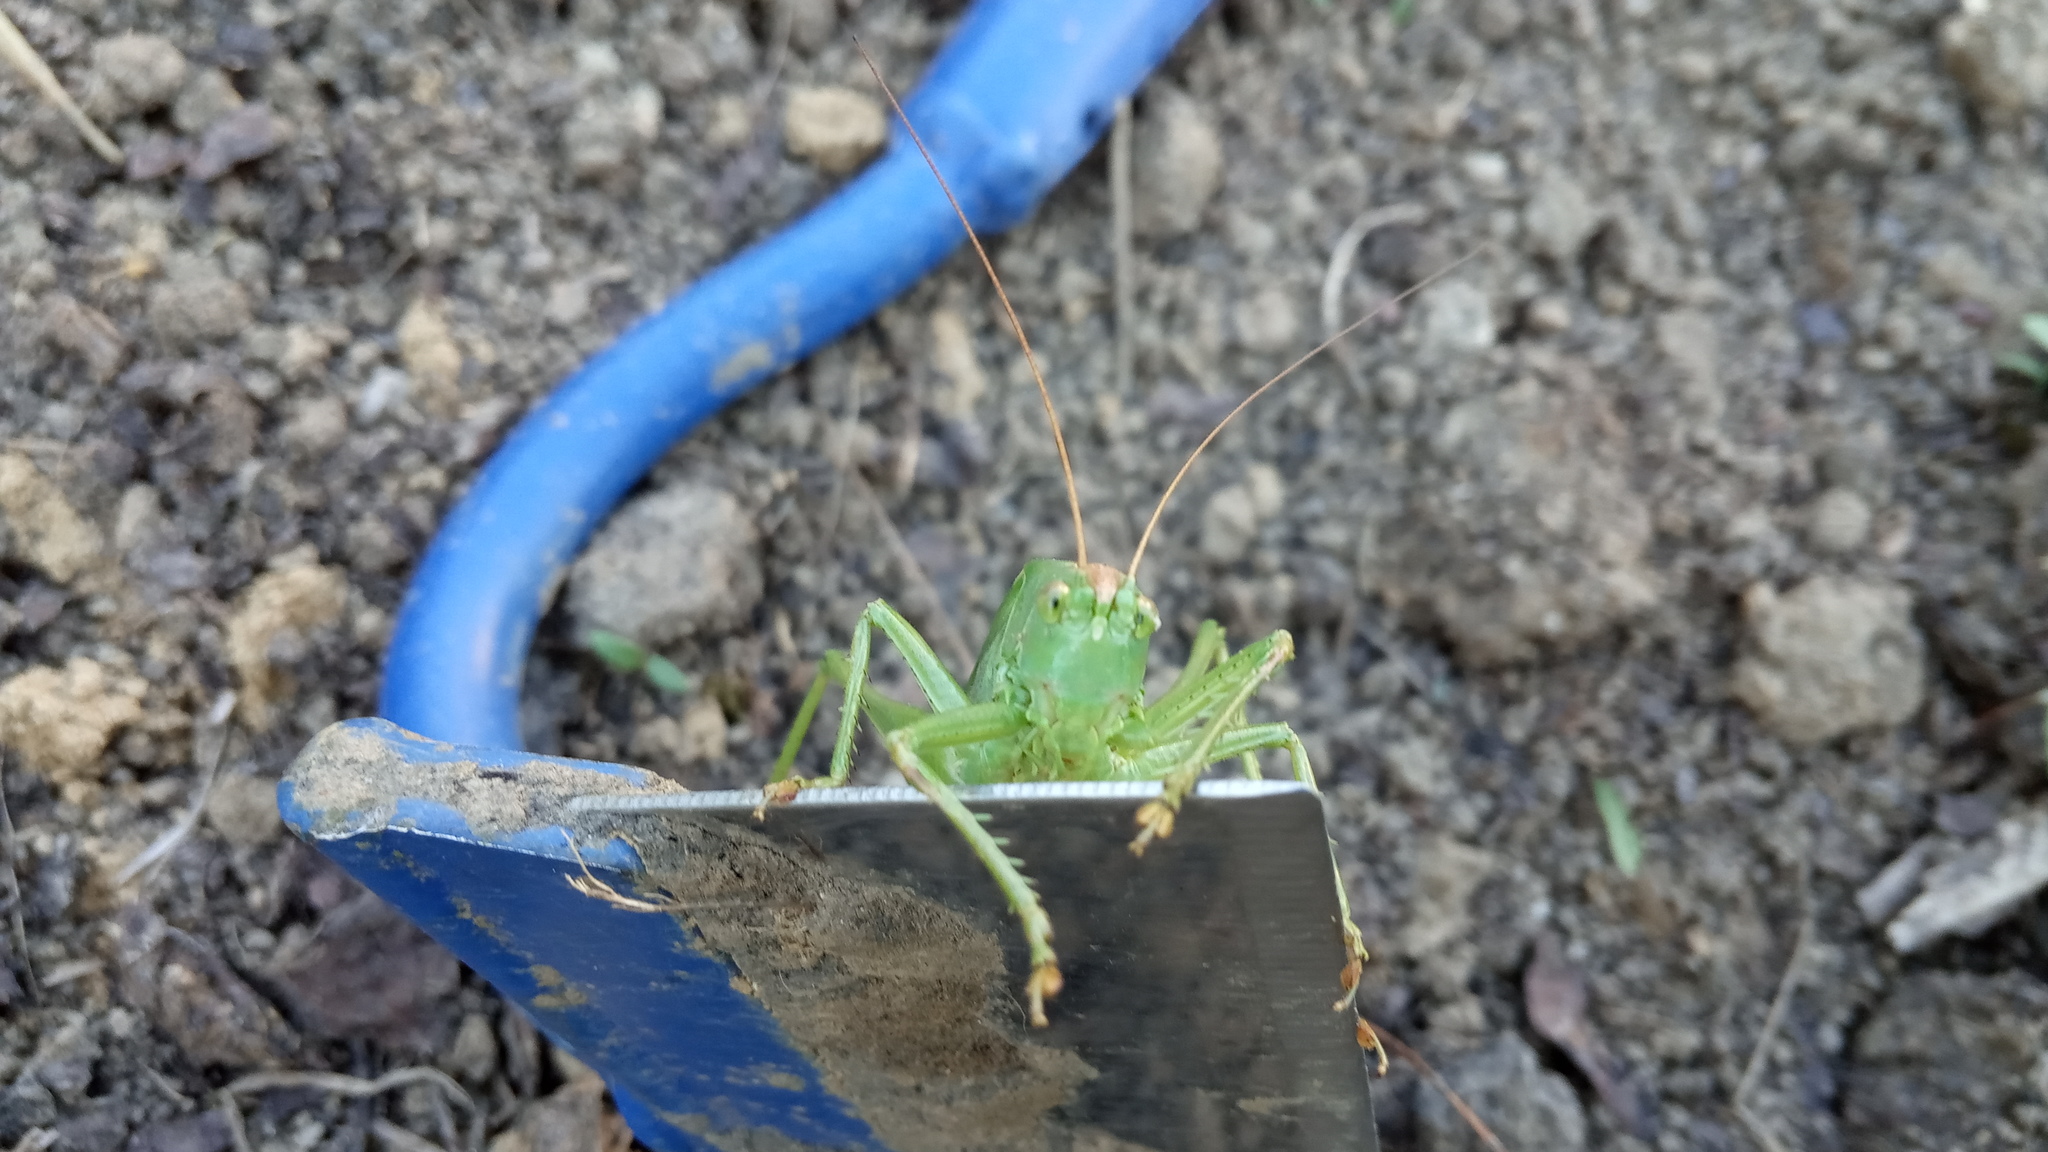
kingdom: Animalia
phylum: Arthropoda
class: Insecta
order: Orthoptera
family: Tettigoniidae
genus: Tettigonia
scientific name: Tettigonia viridissima
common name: Great green bush-cricket
